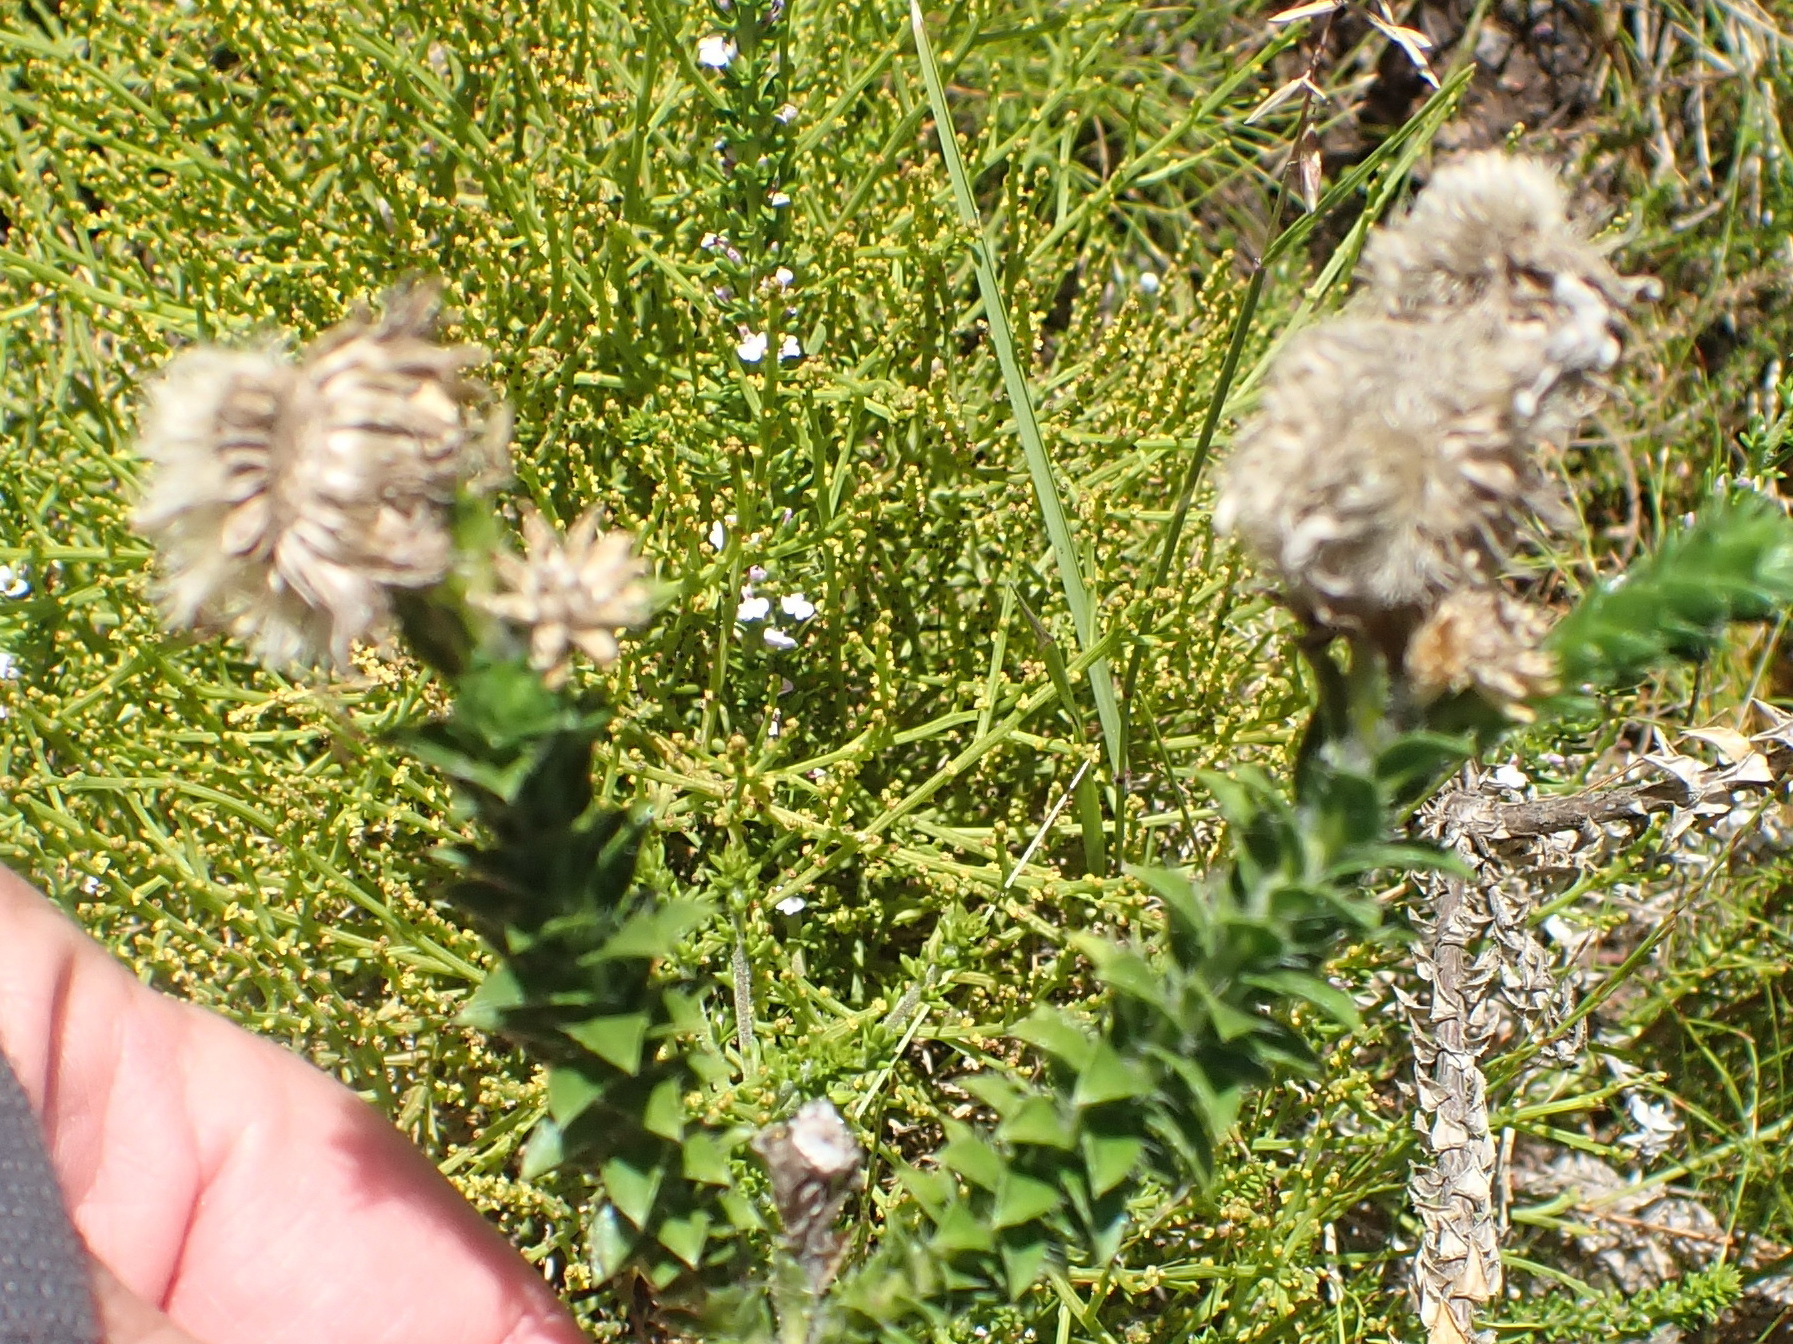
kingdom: Plantae
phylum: Tracheophyta
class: Magnoliopsida
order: Asterales
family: Asteraceae
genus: Felicia
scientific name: Felicia echinata
